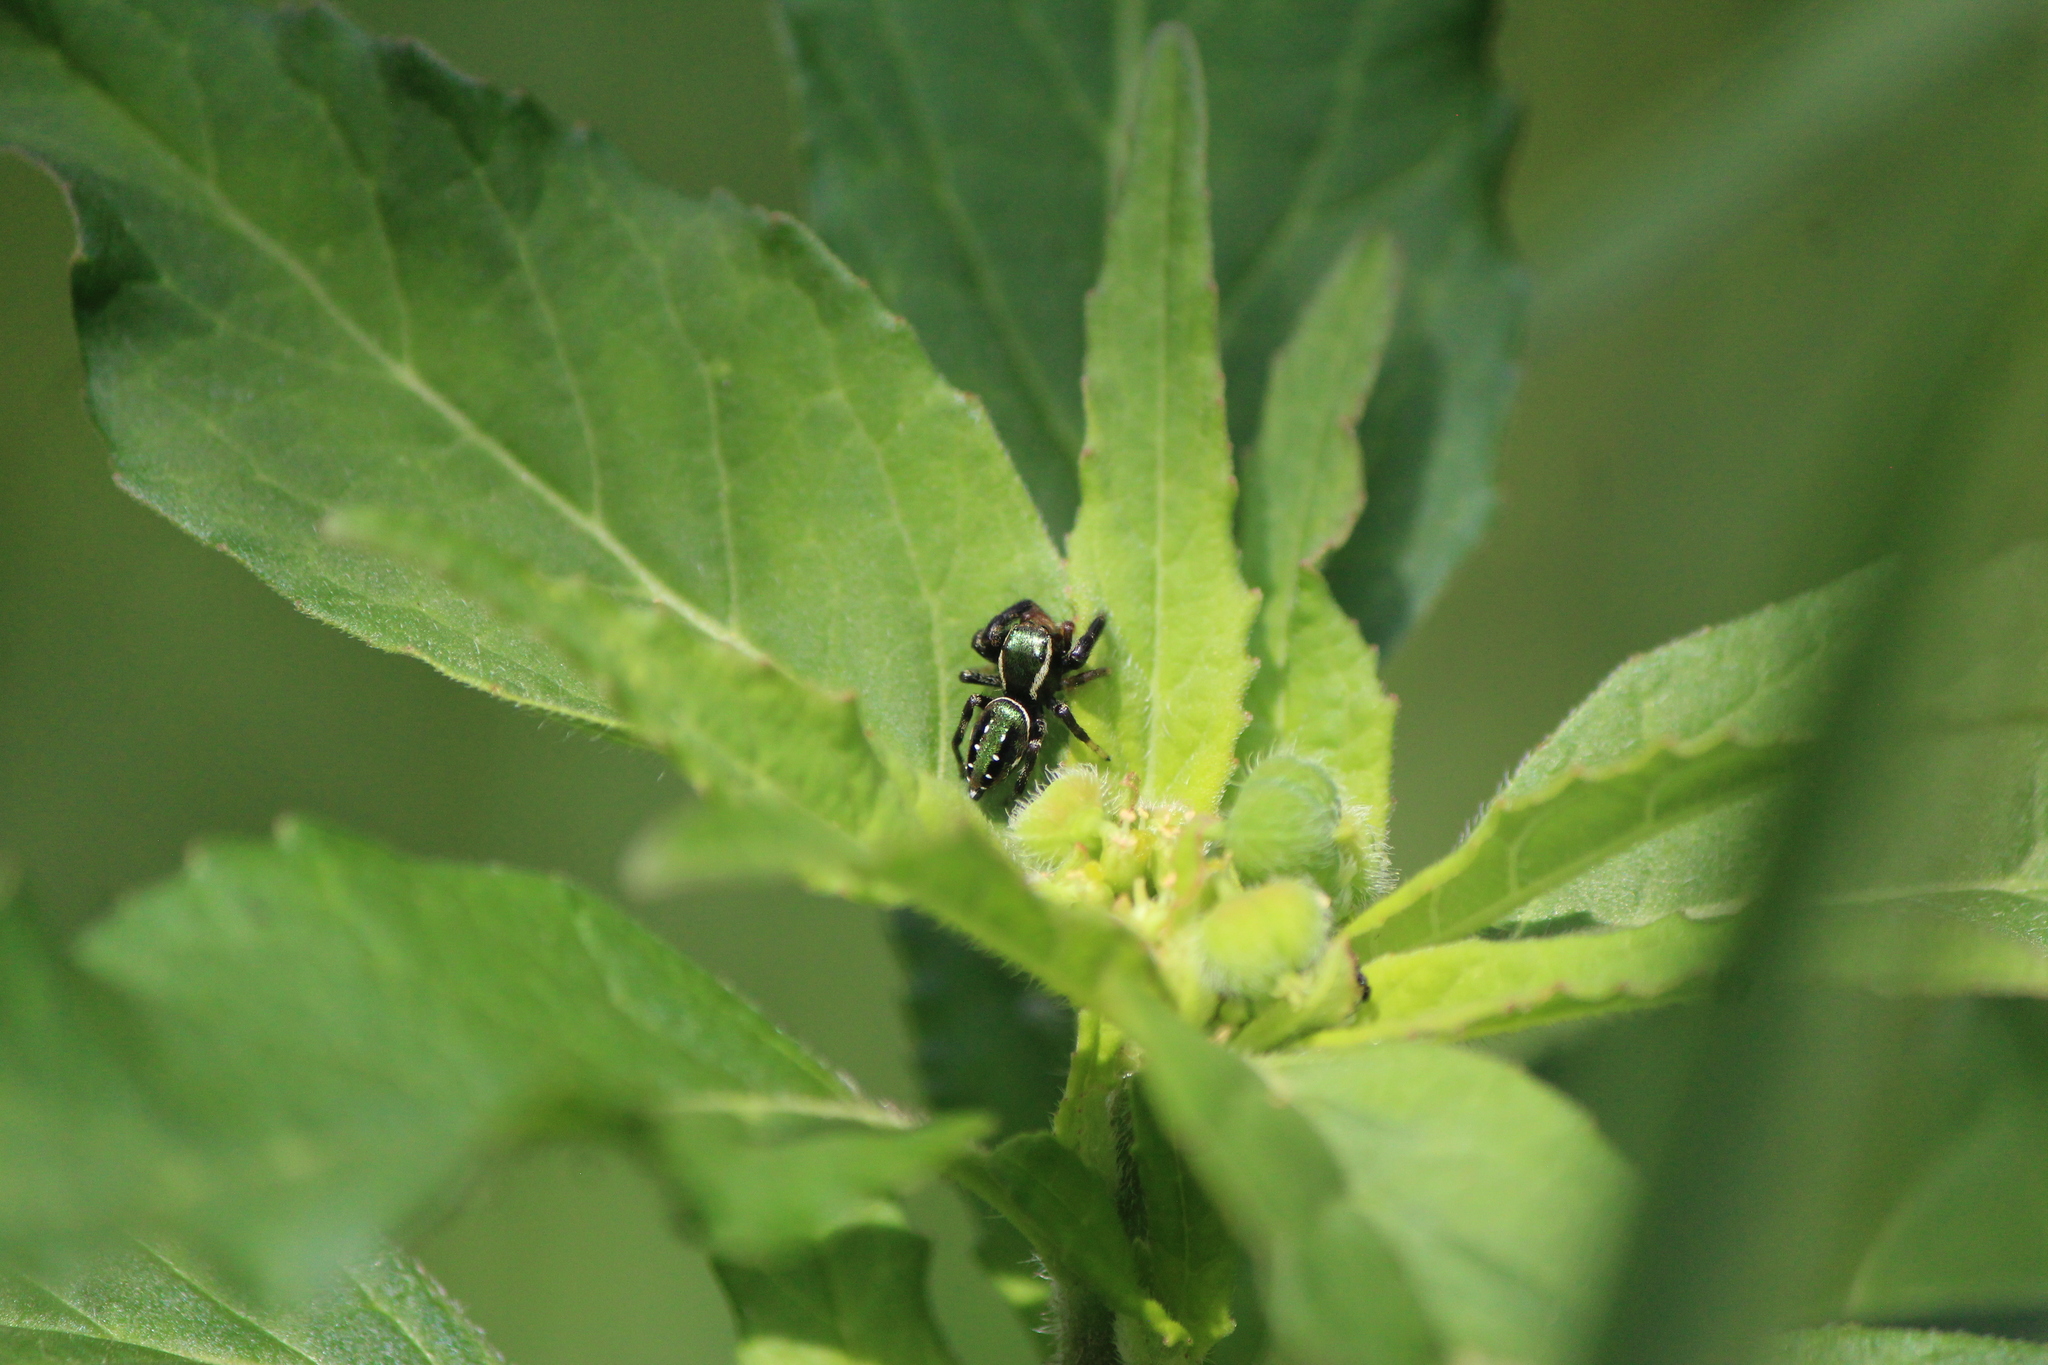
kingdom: Animalia
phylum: Arthropoda
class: Arachnida
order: Araneae
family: Salticidae
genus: Paraphidippus
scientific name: Paraphidippus aurantius
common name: Jumping spiders
